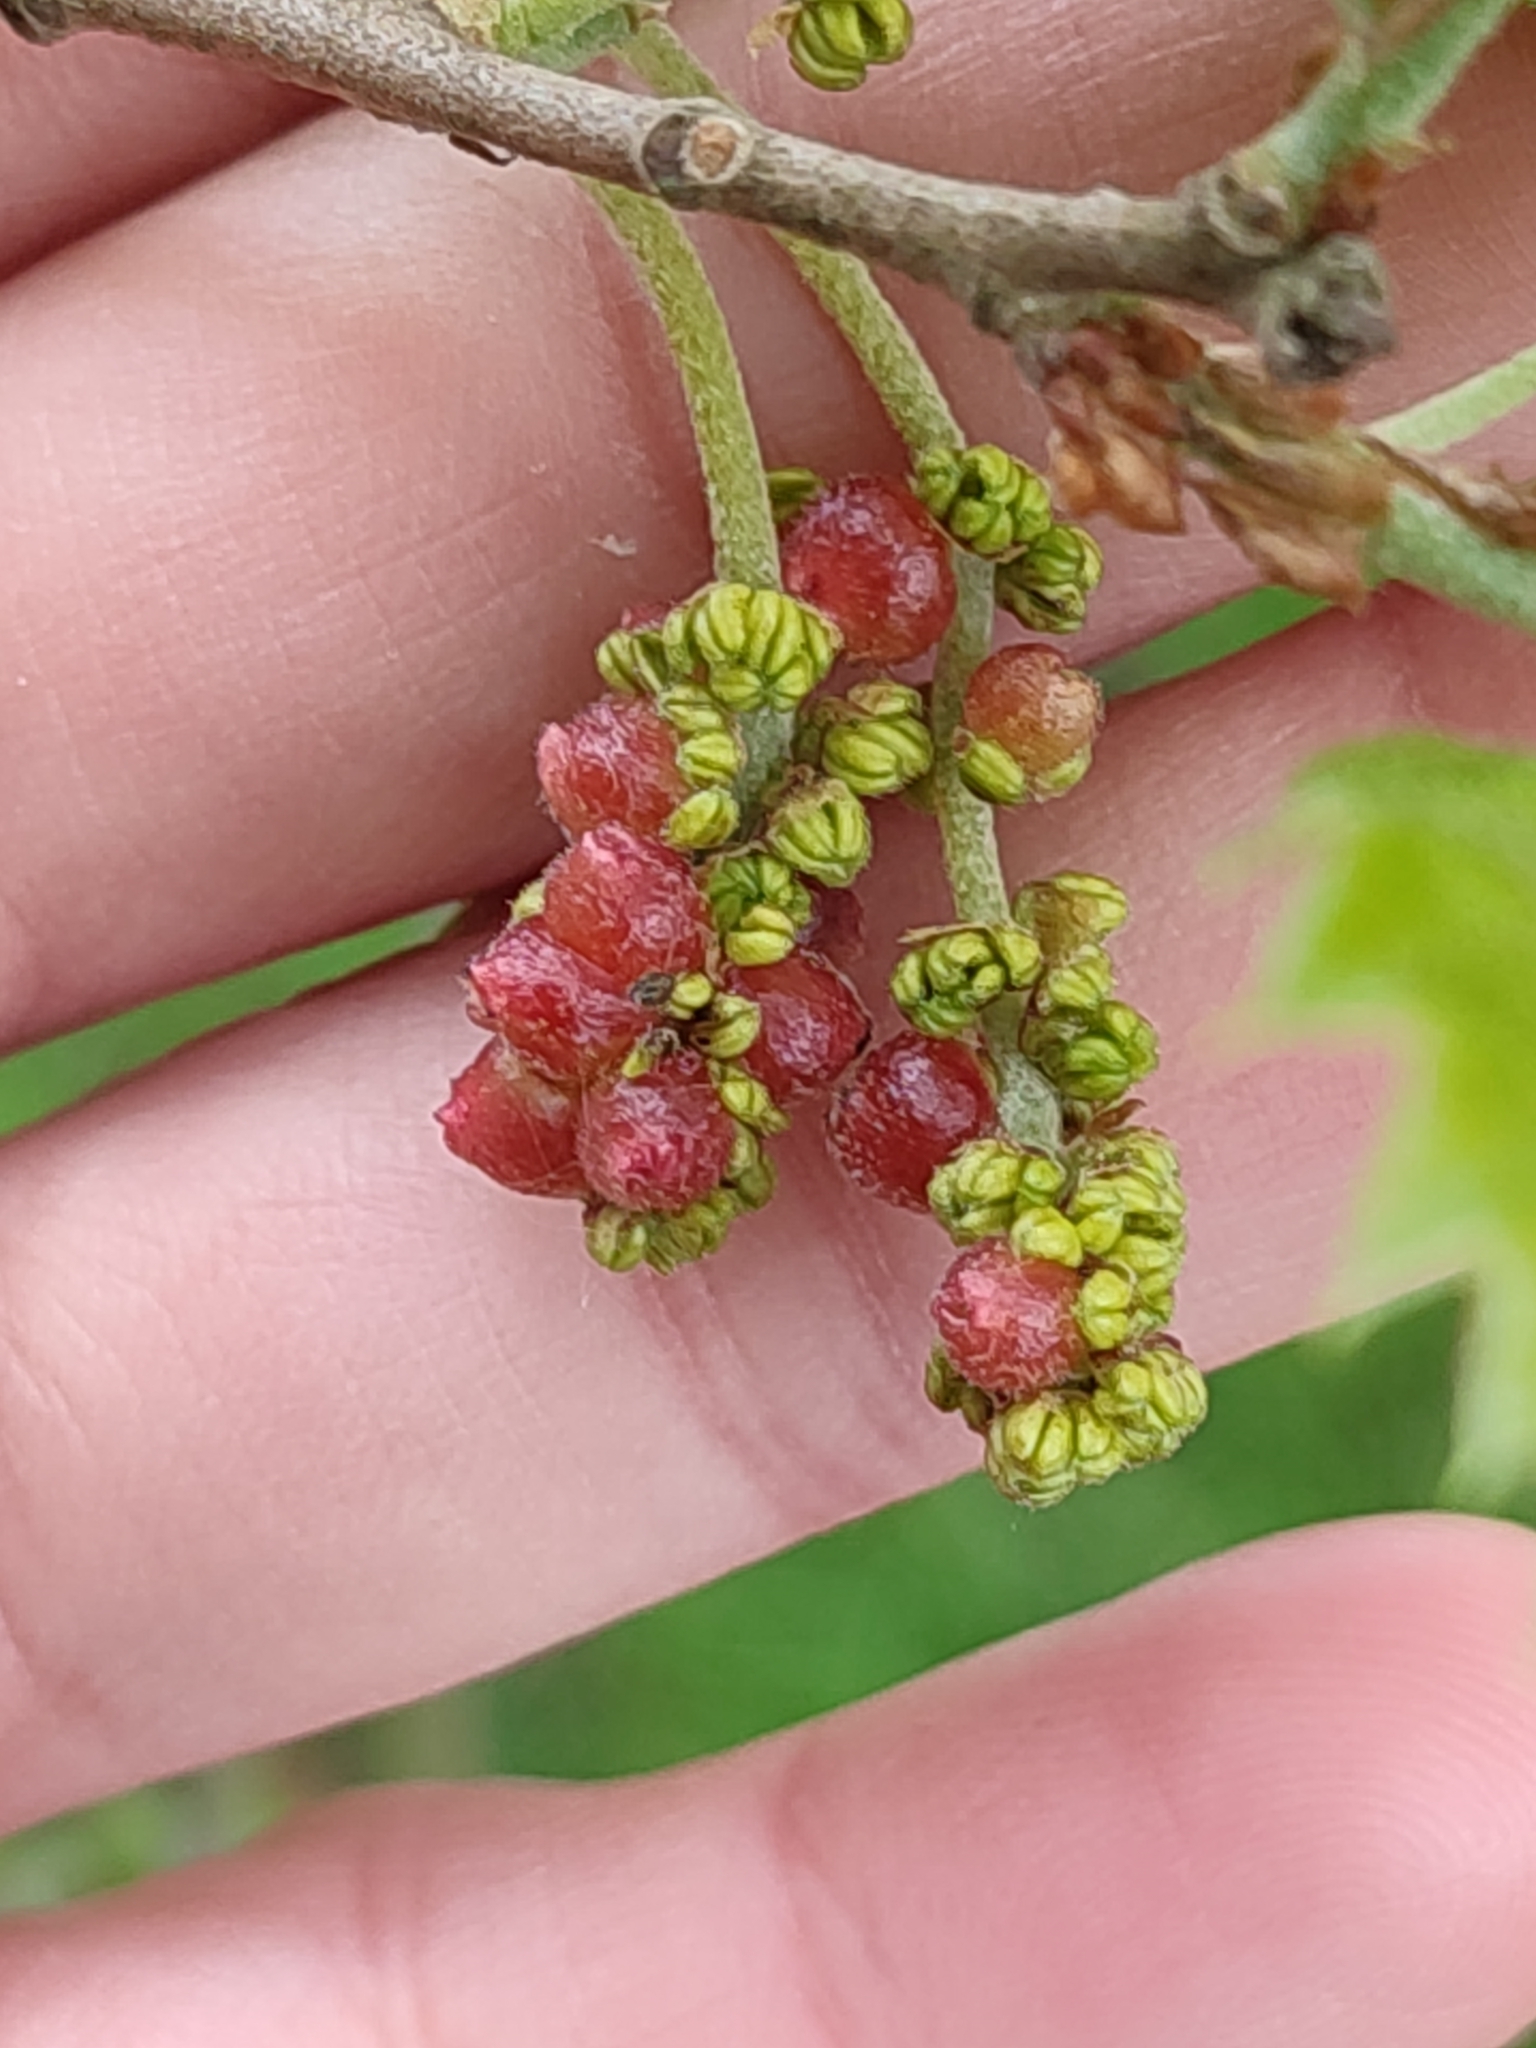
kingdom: Animalia
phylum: Arthropoda
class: Insecta
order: Hymenoptera
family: Cynipidae
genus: Andricus
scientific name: Andricus grossulariae
